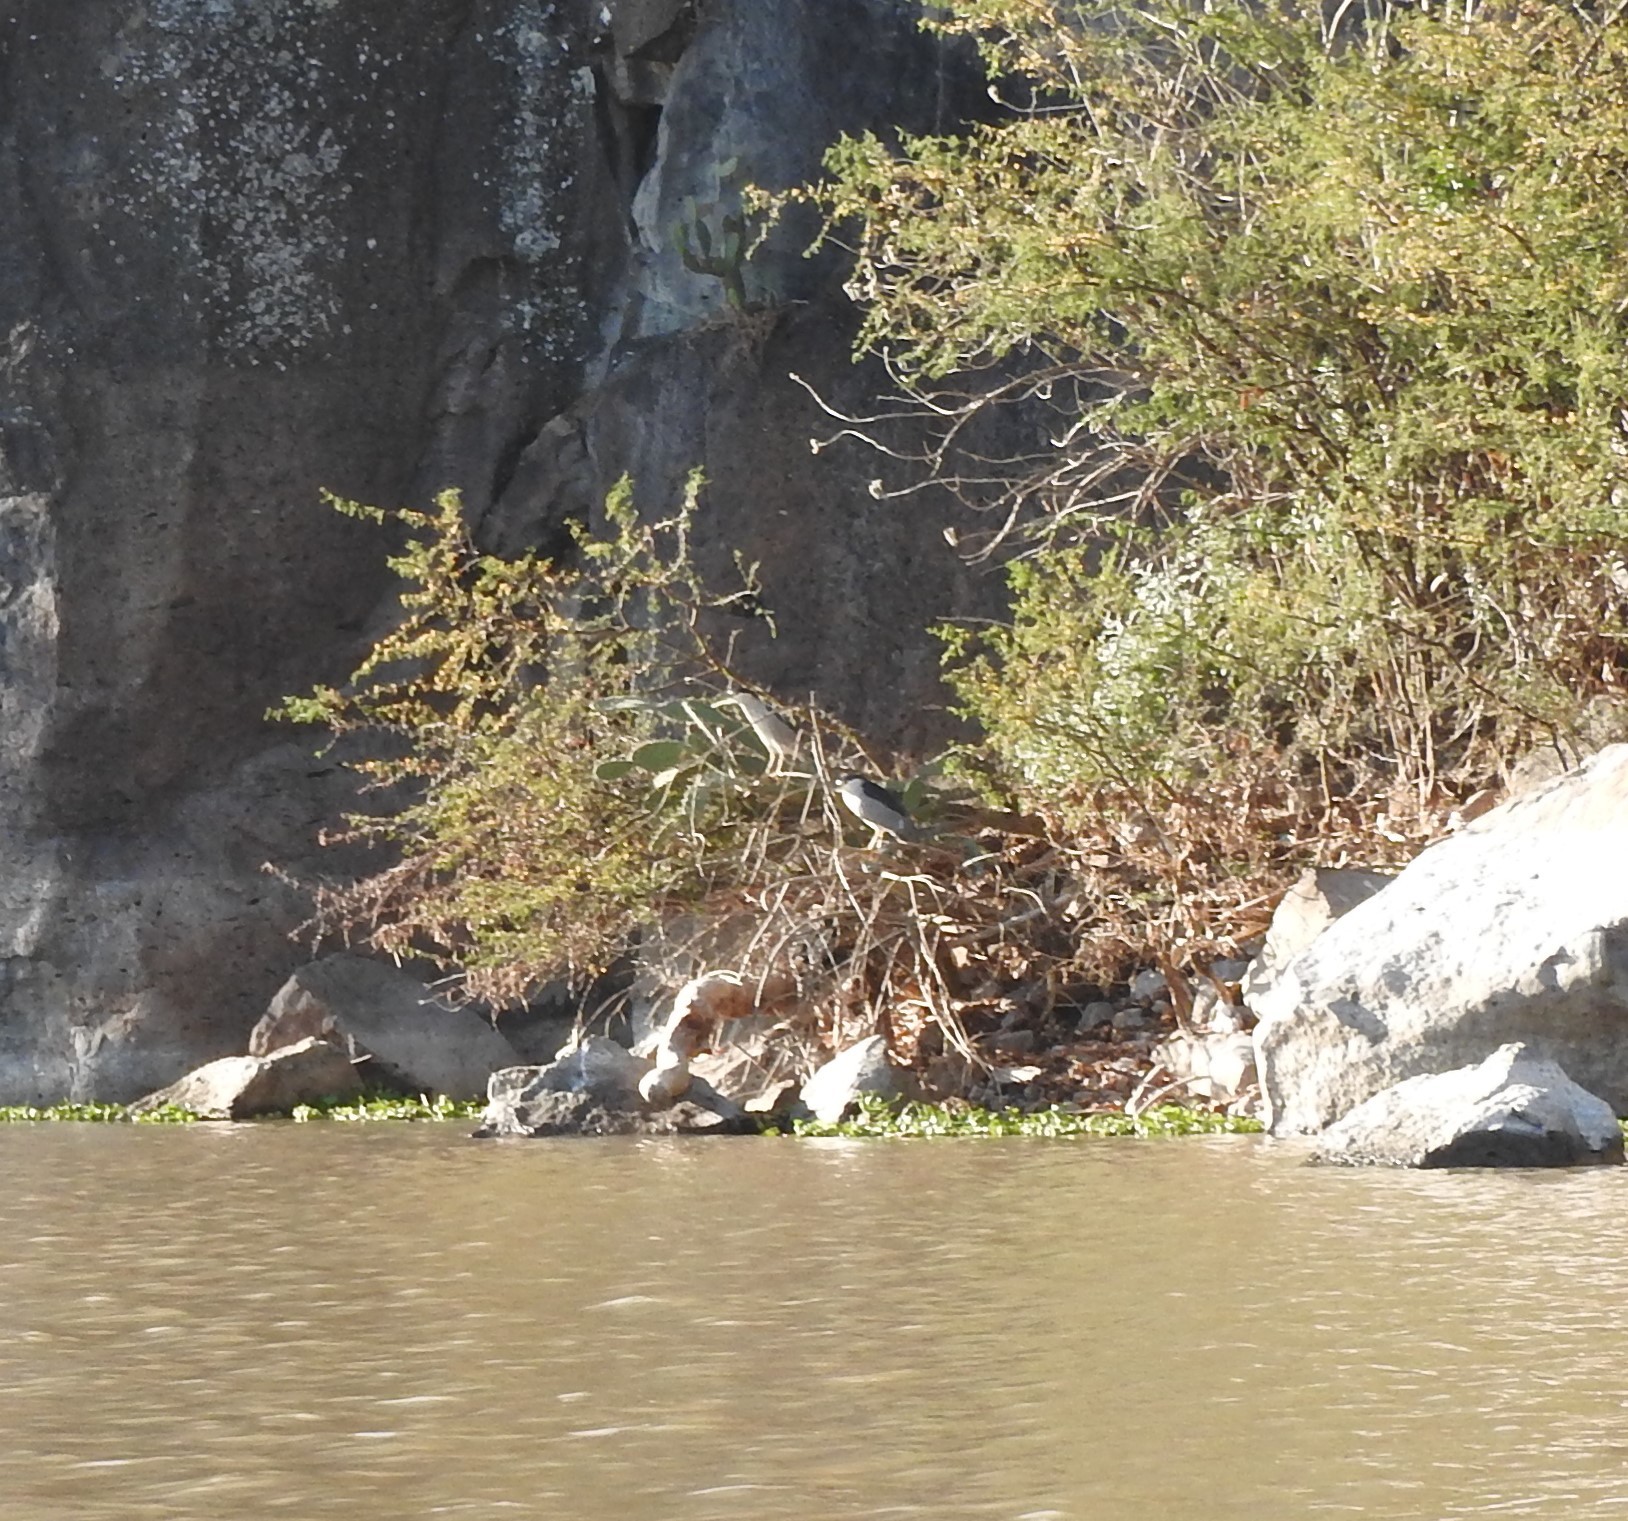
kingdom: Animalia
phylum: Chordata
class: Aves
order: Pelecaniformes
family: Ardeidae
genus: Nycticorax
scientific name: Nycticorax nycticorax
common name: Black-crowned night heron
